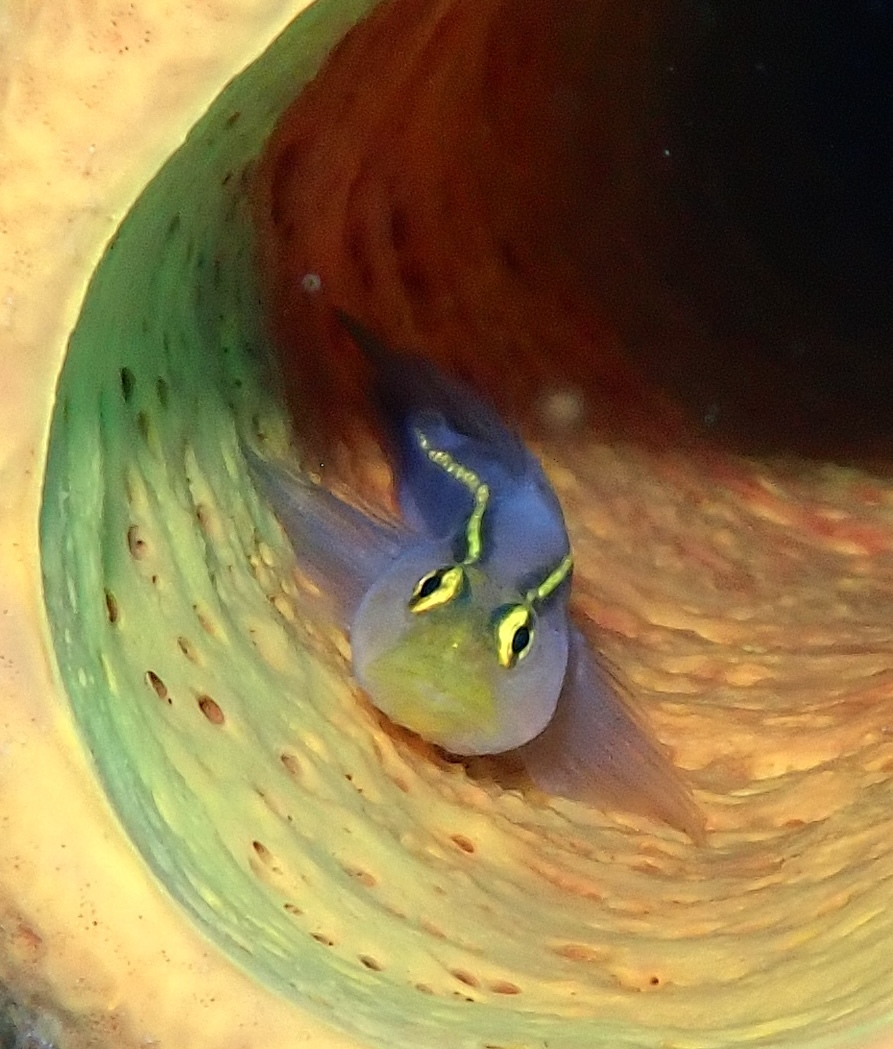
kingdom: Animalia
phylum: Chordata
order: Perciformes
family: Gobiidae
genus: Elacatinus
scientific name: Elacatinus horsti
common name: Yellowline goby
